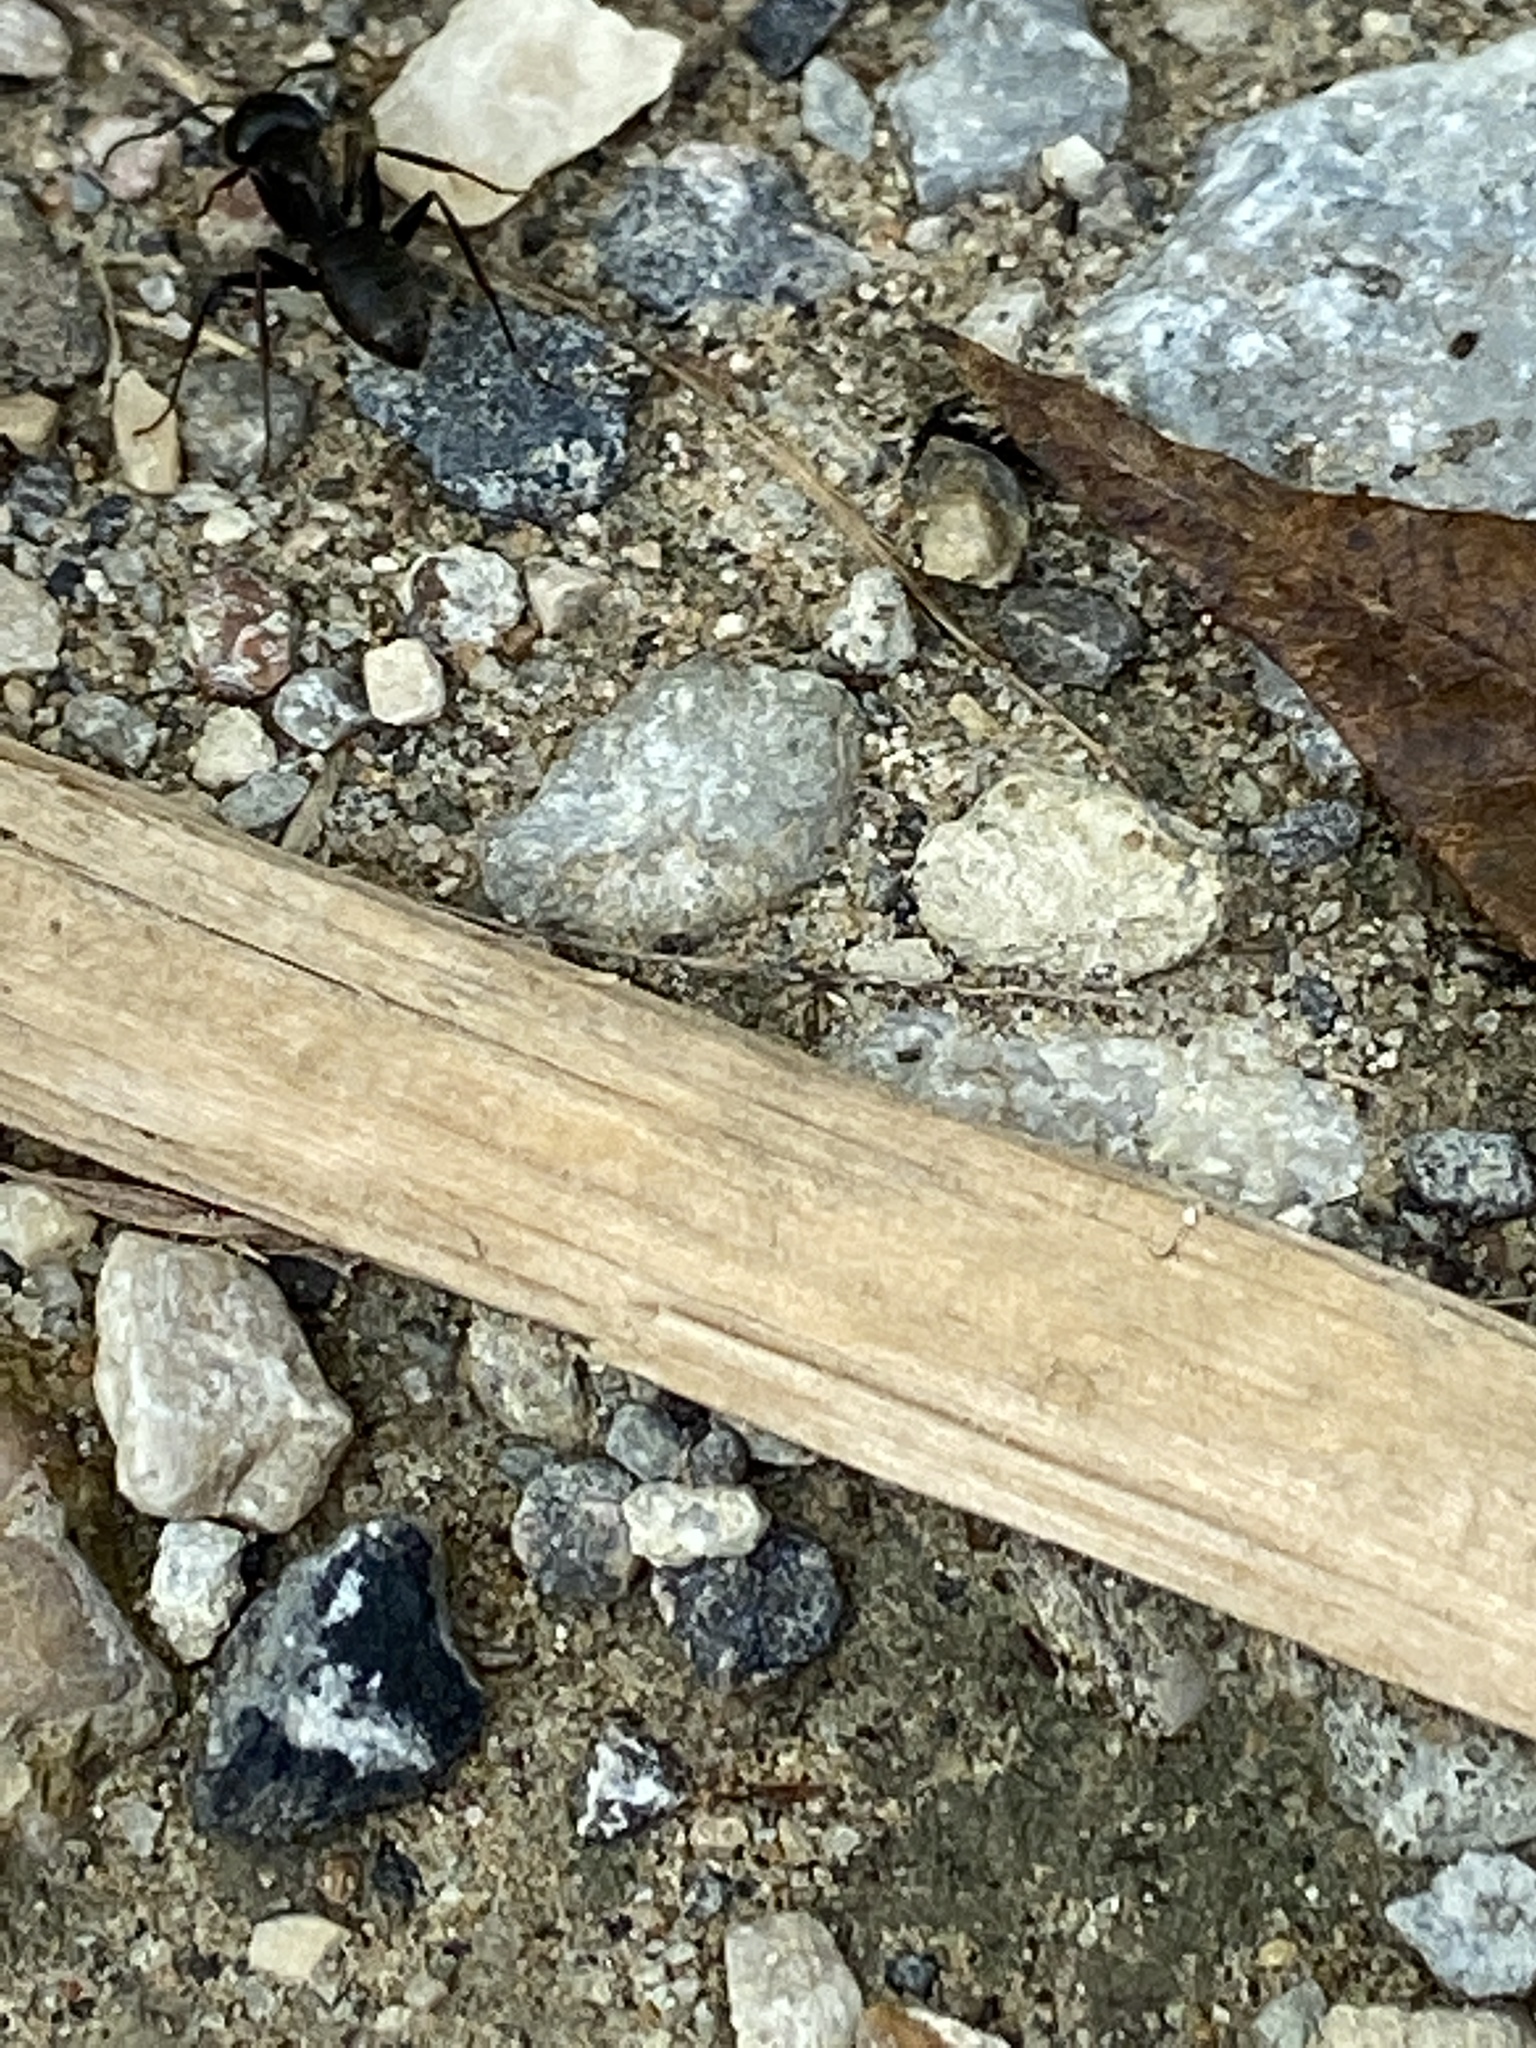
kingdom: Animalia
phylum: Arthropoda
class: Insecta
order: Hymenoptera
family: Formicidae
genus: Camponotus
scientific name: Camponotus pennsylvanicus
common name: Black carpenter ant
